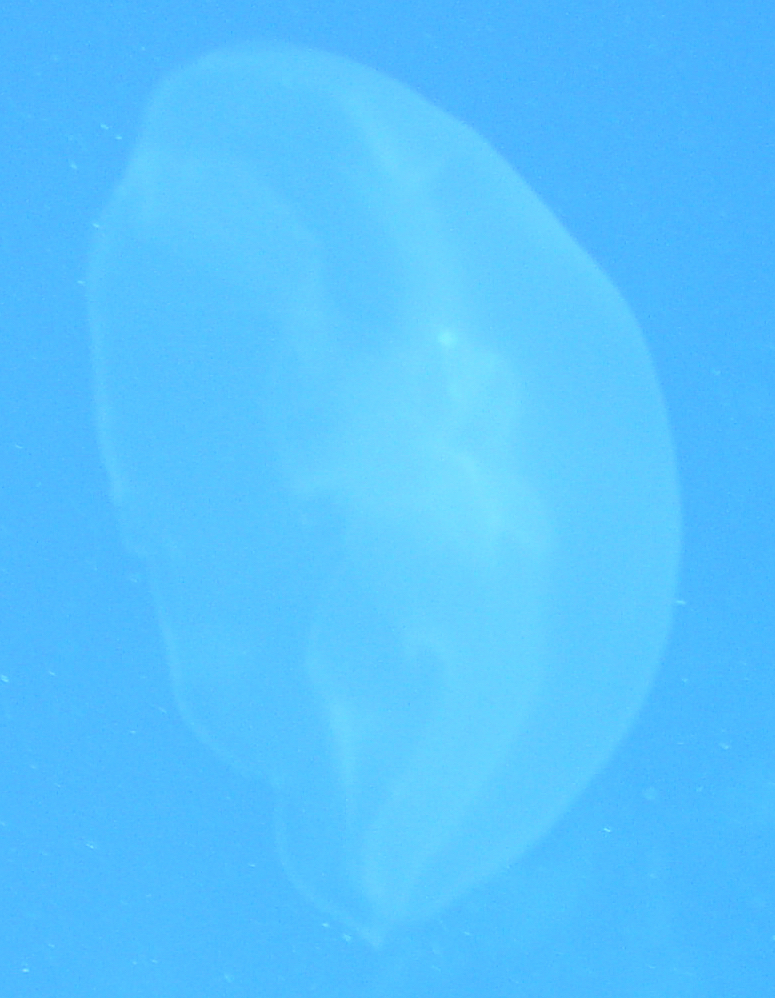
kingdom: Animalia
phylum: Cnidaria
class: Scyphozoa
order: Semaeostomeae
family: Ulmaridae
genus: Aurelia
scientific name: Aurelia marginalis
